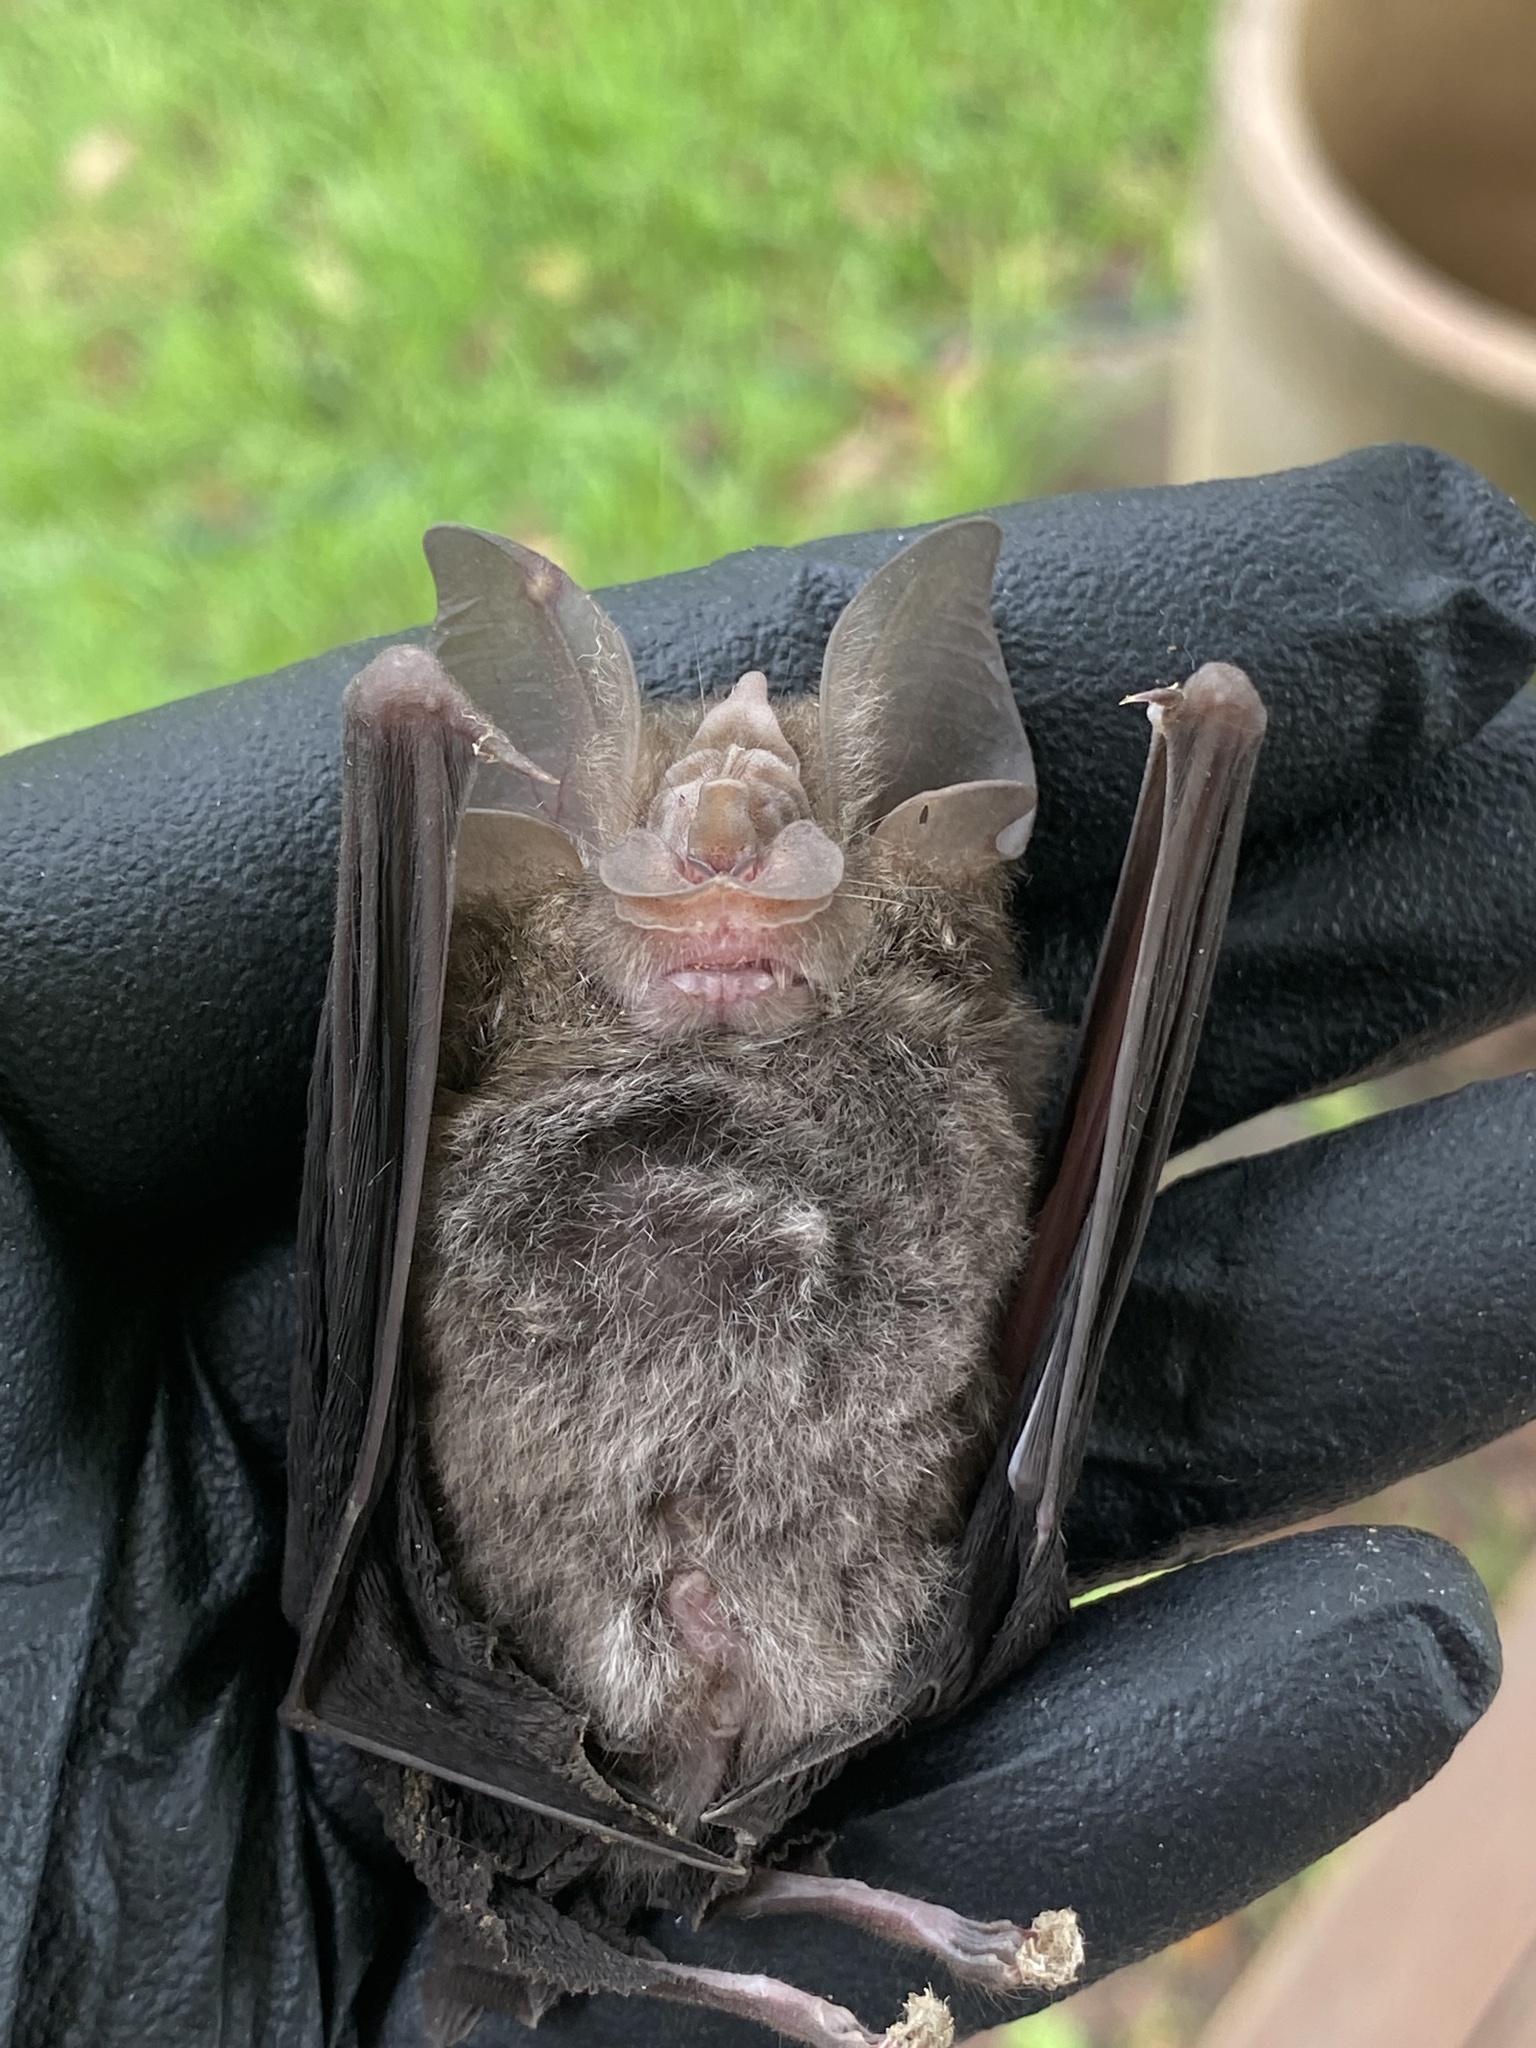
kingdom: Animalia
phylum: Chordata
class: Mammalia
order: Chiroptera
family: Rhinolophidae
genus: Rhinolophus
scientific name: Rhinolophus megaphyllus
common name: Smaller horseshoe bat
